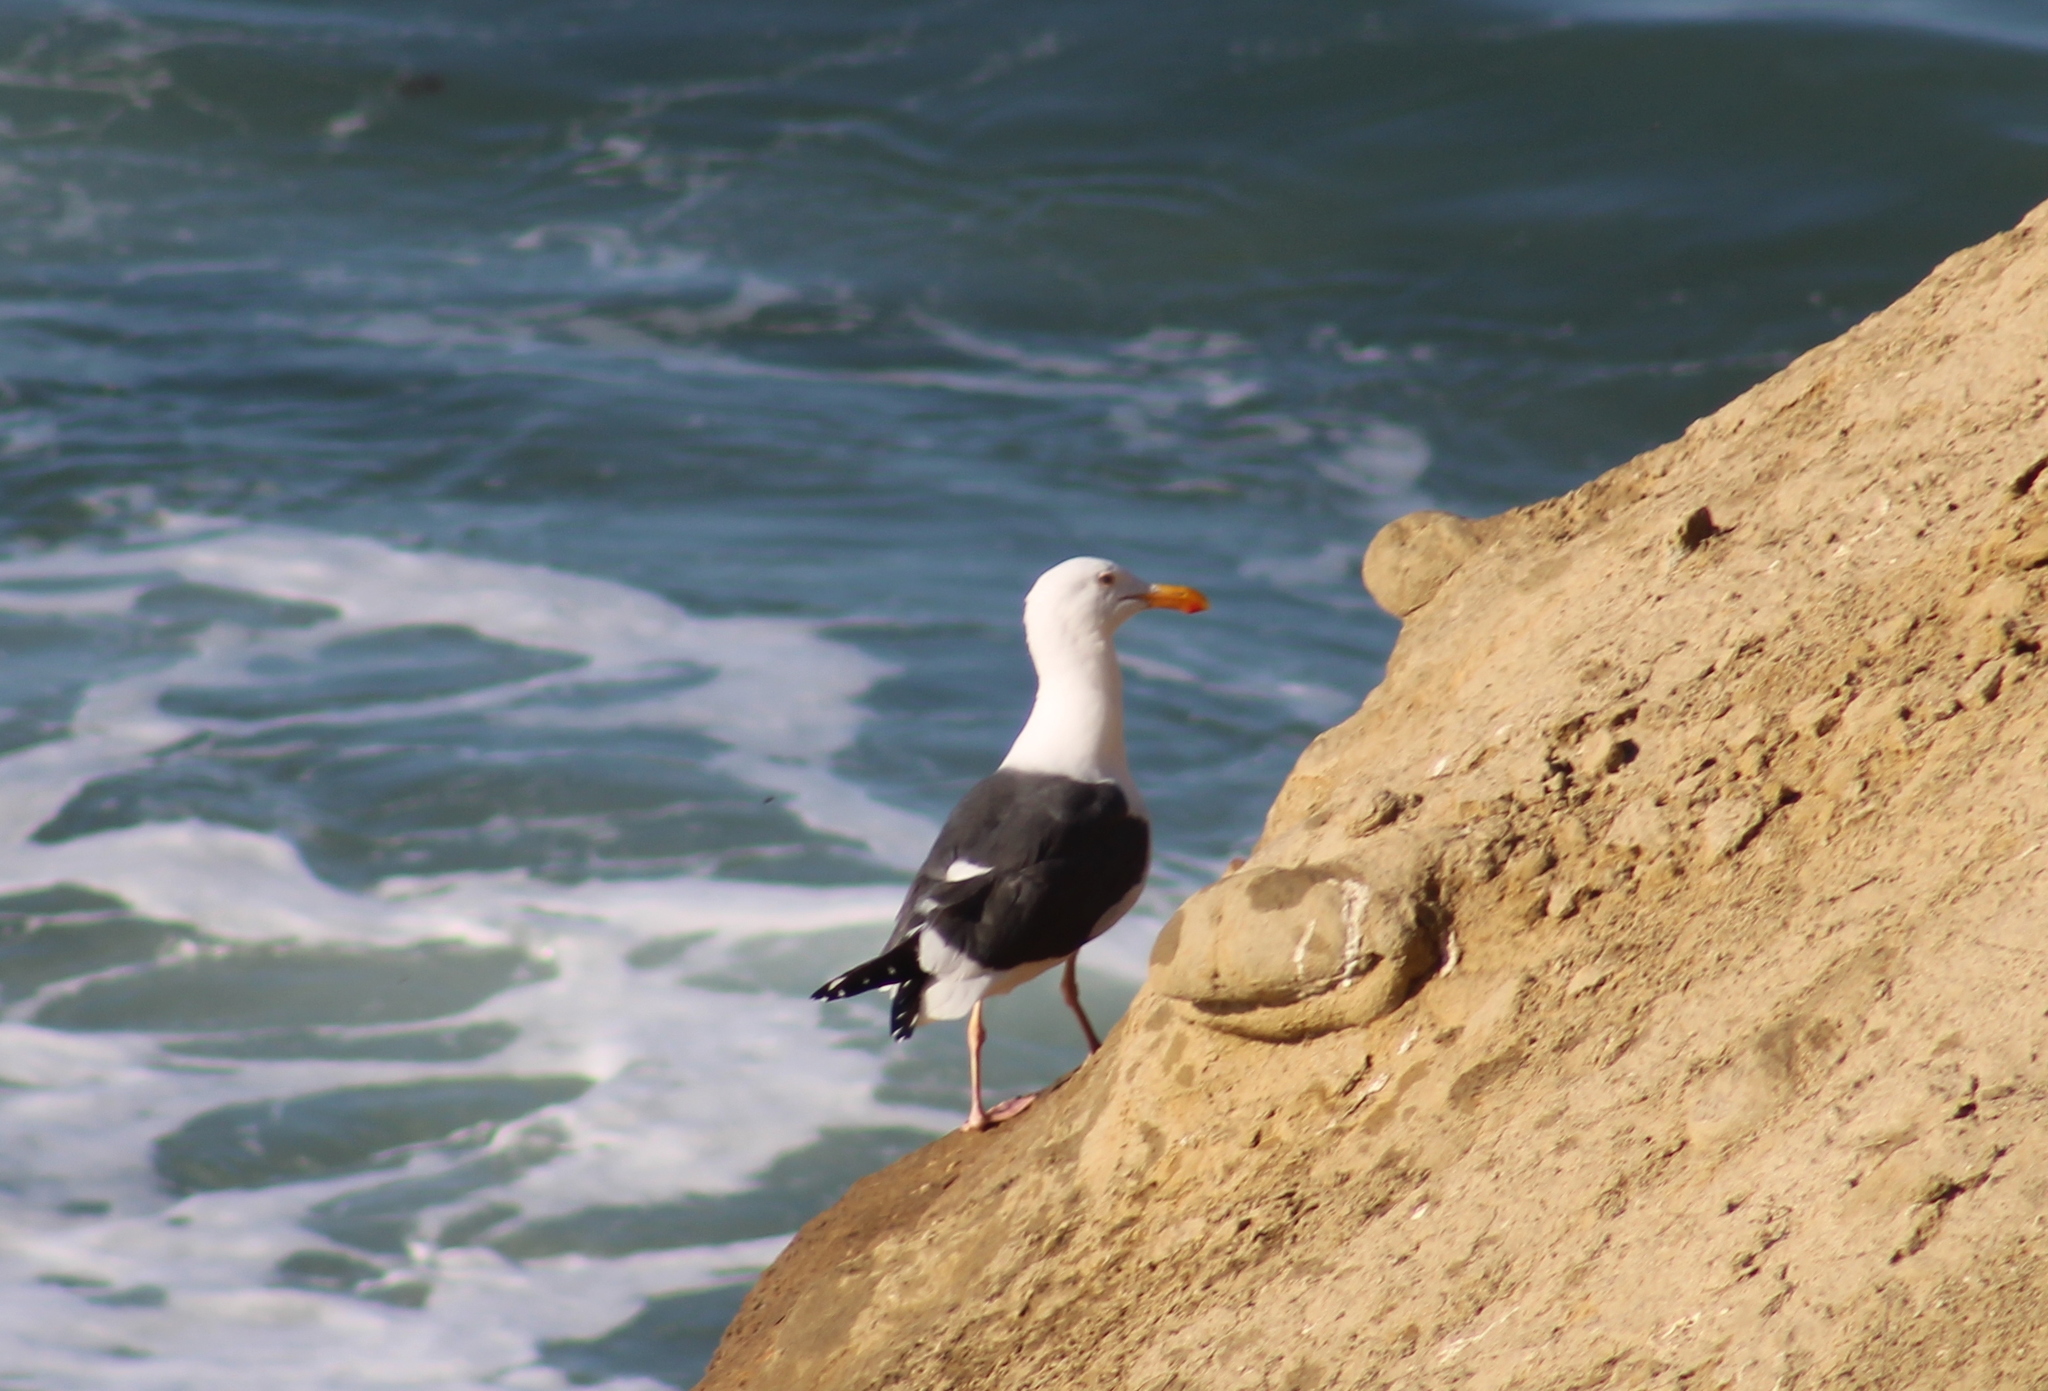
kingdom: Animalia
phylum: Chordata
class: Aves
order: Charadriiformes
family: Laridae
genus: Larus
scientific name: Larus occidentalis
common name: Western gull
